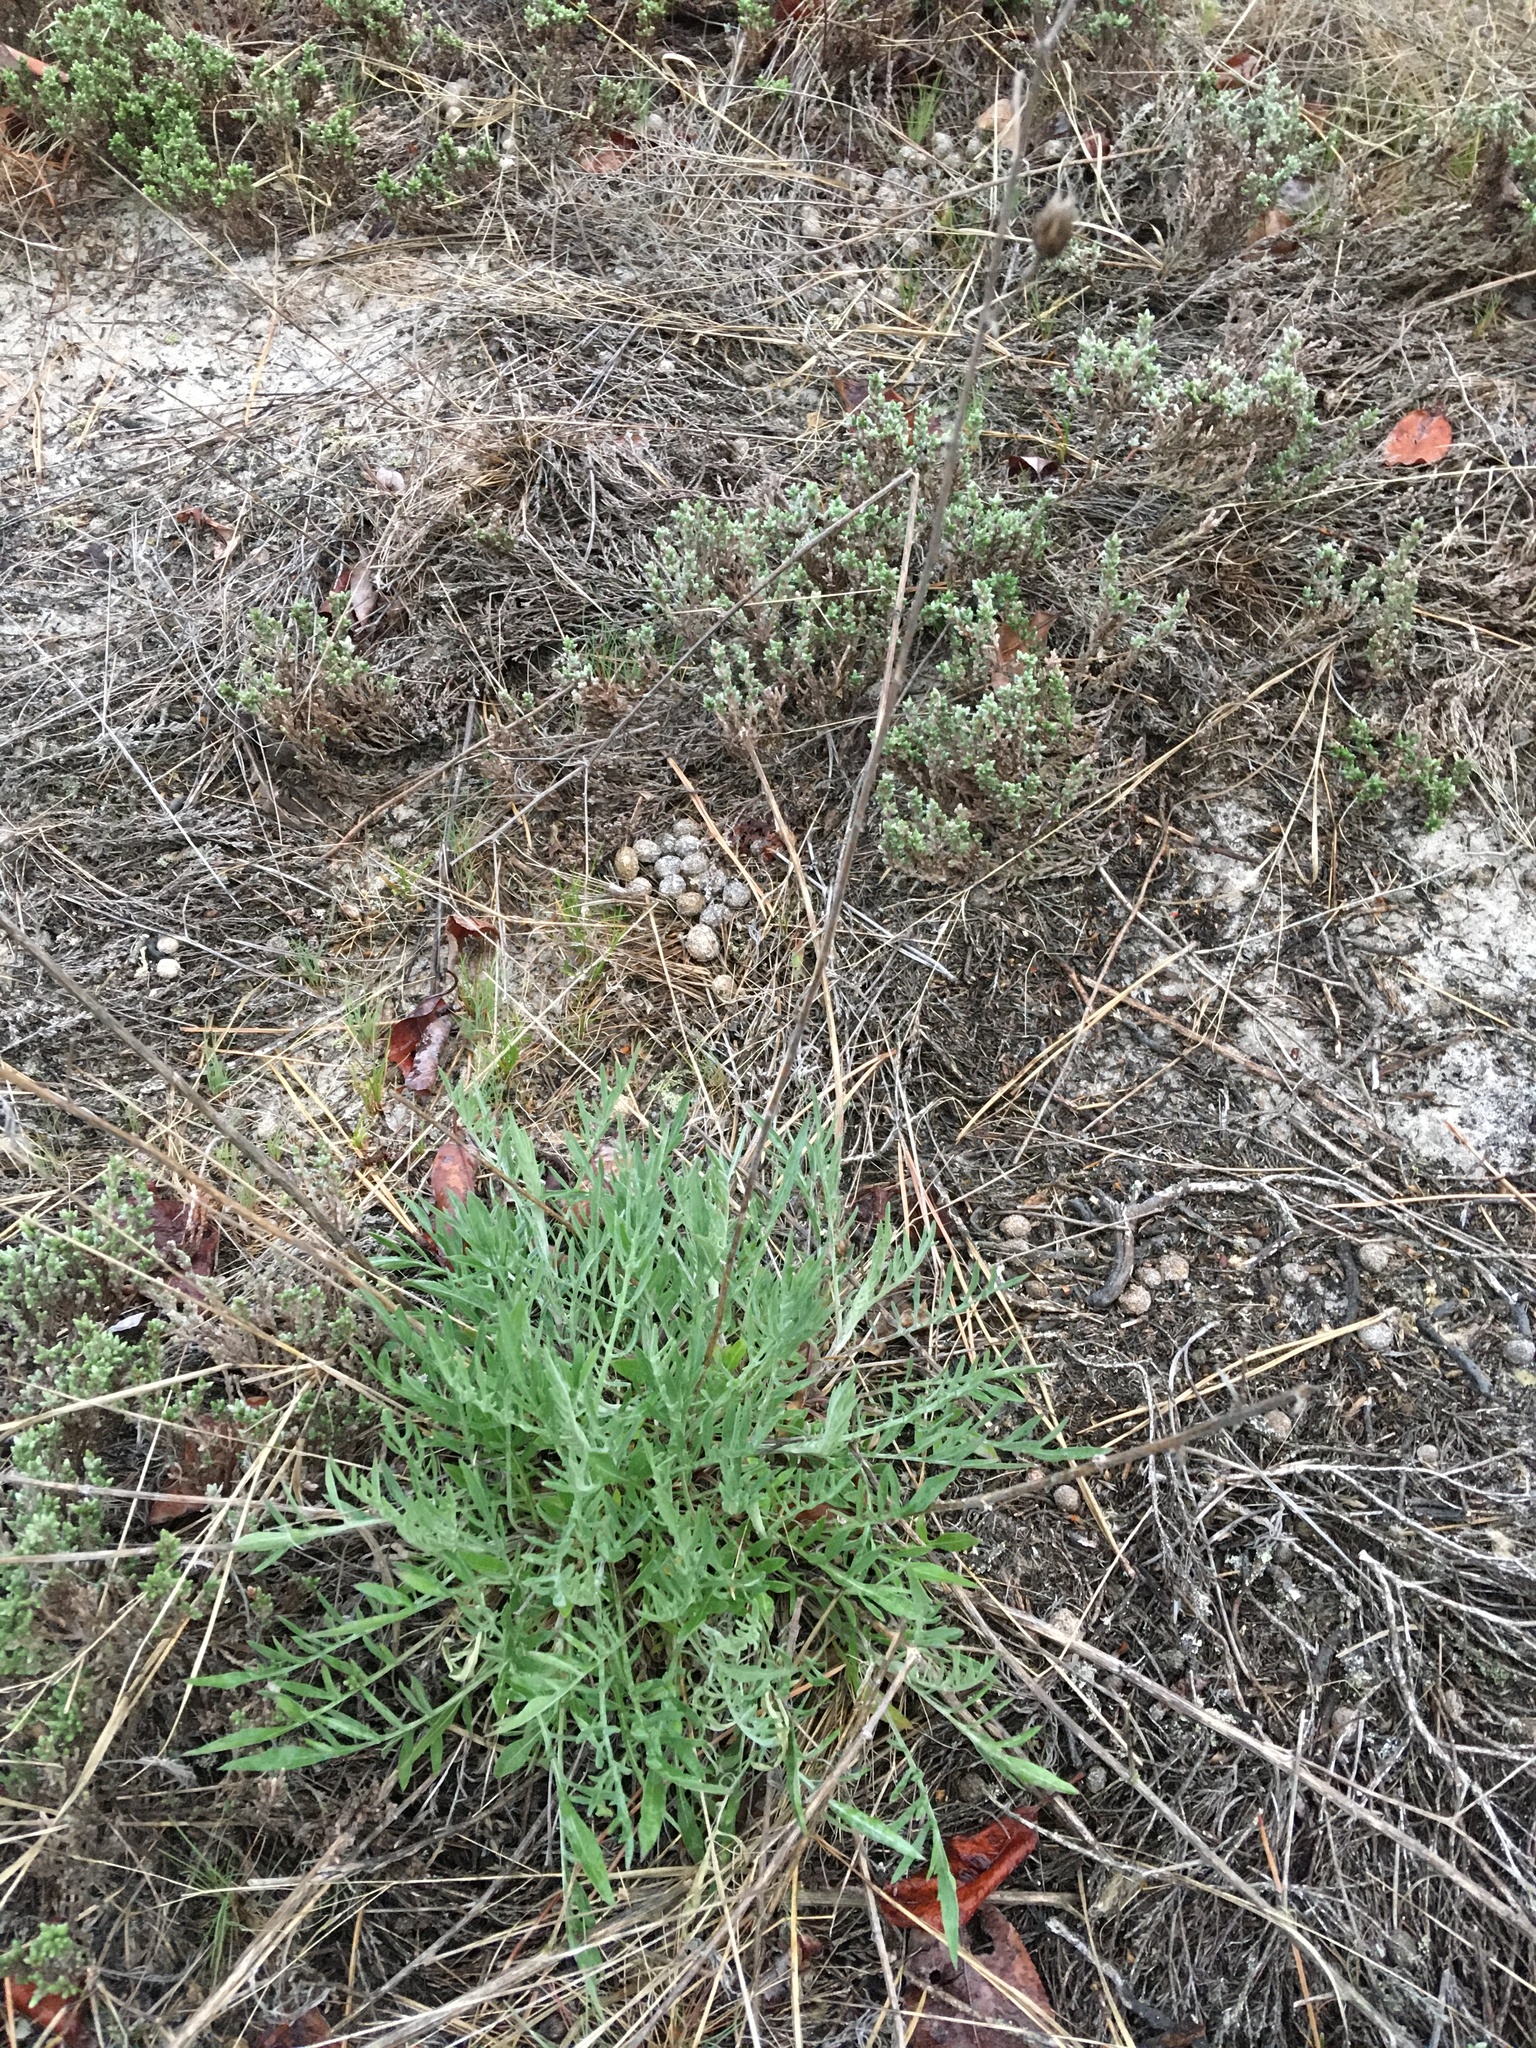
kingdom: Plantae
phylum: Tracheophyta
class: Magnoliopsida
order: Asterales
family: Asteraceae
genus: Centaurea
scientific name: Centaurea stoebe
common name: Spotted knapweed
